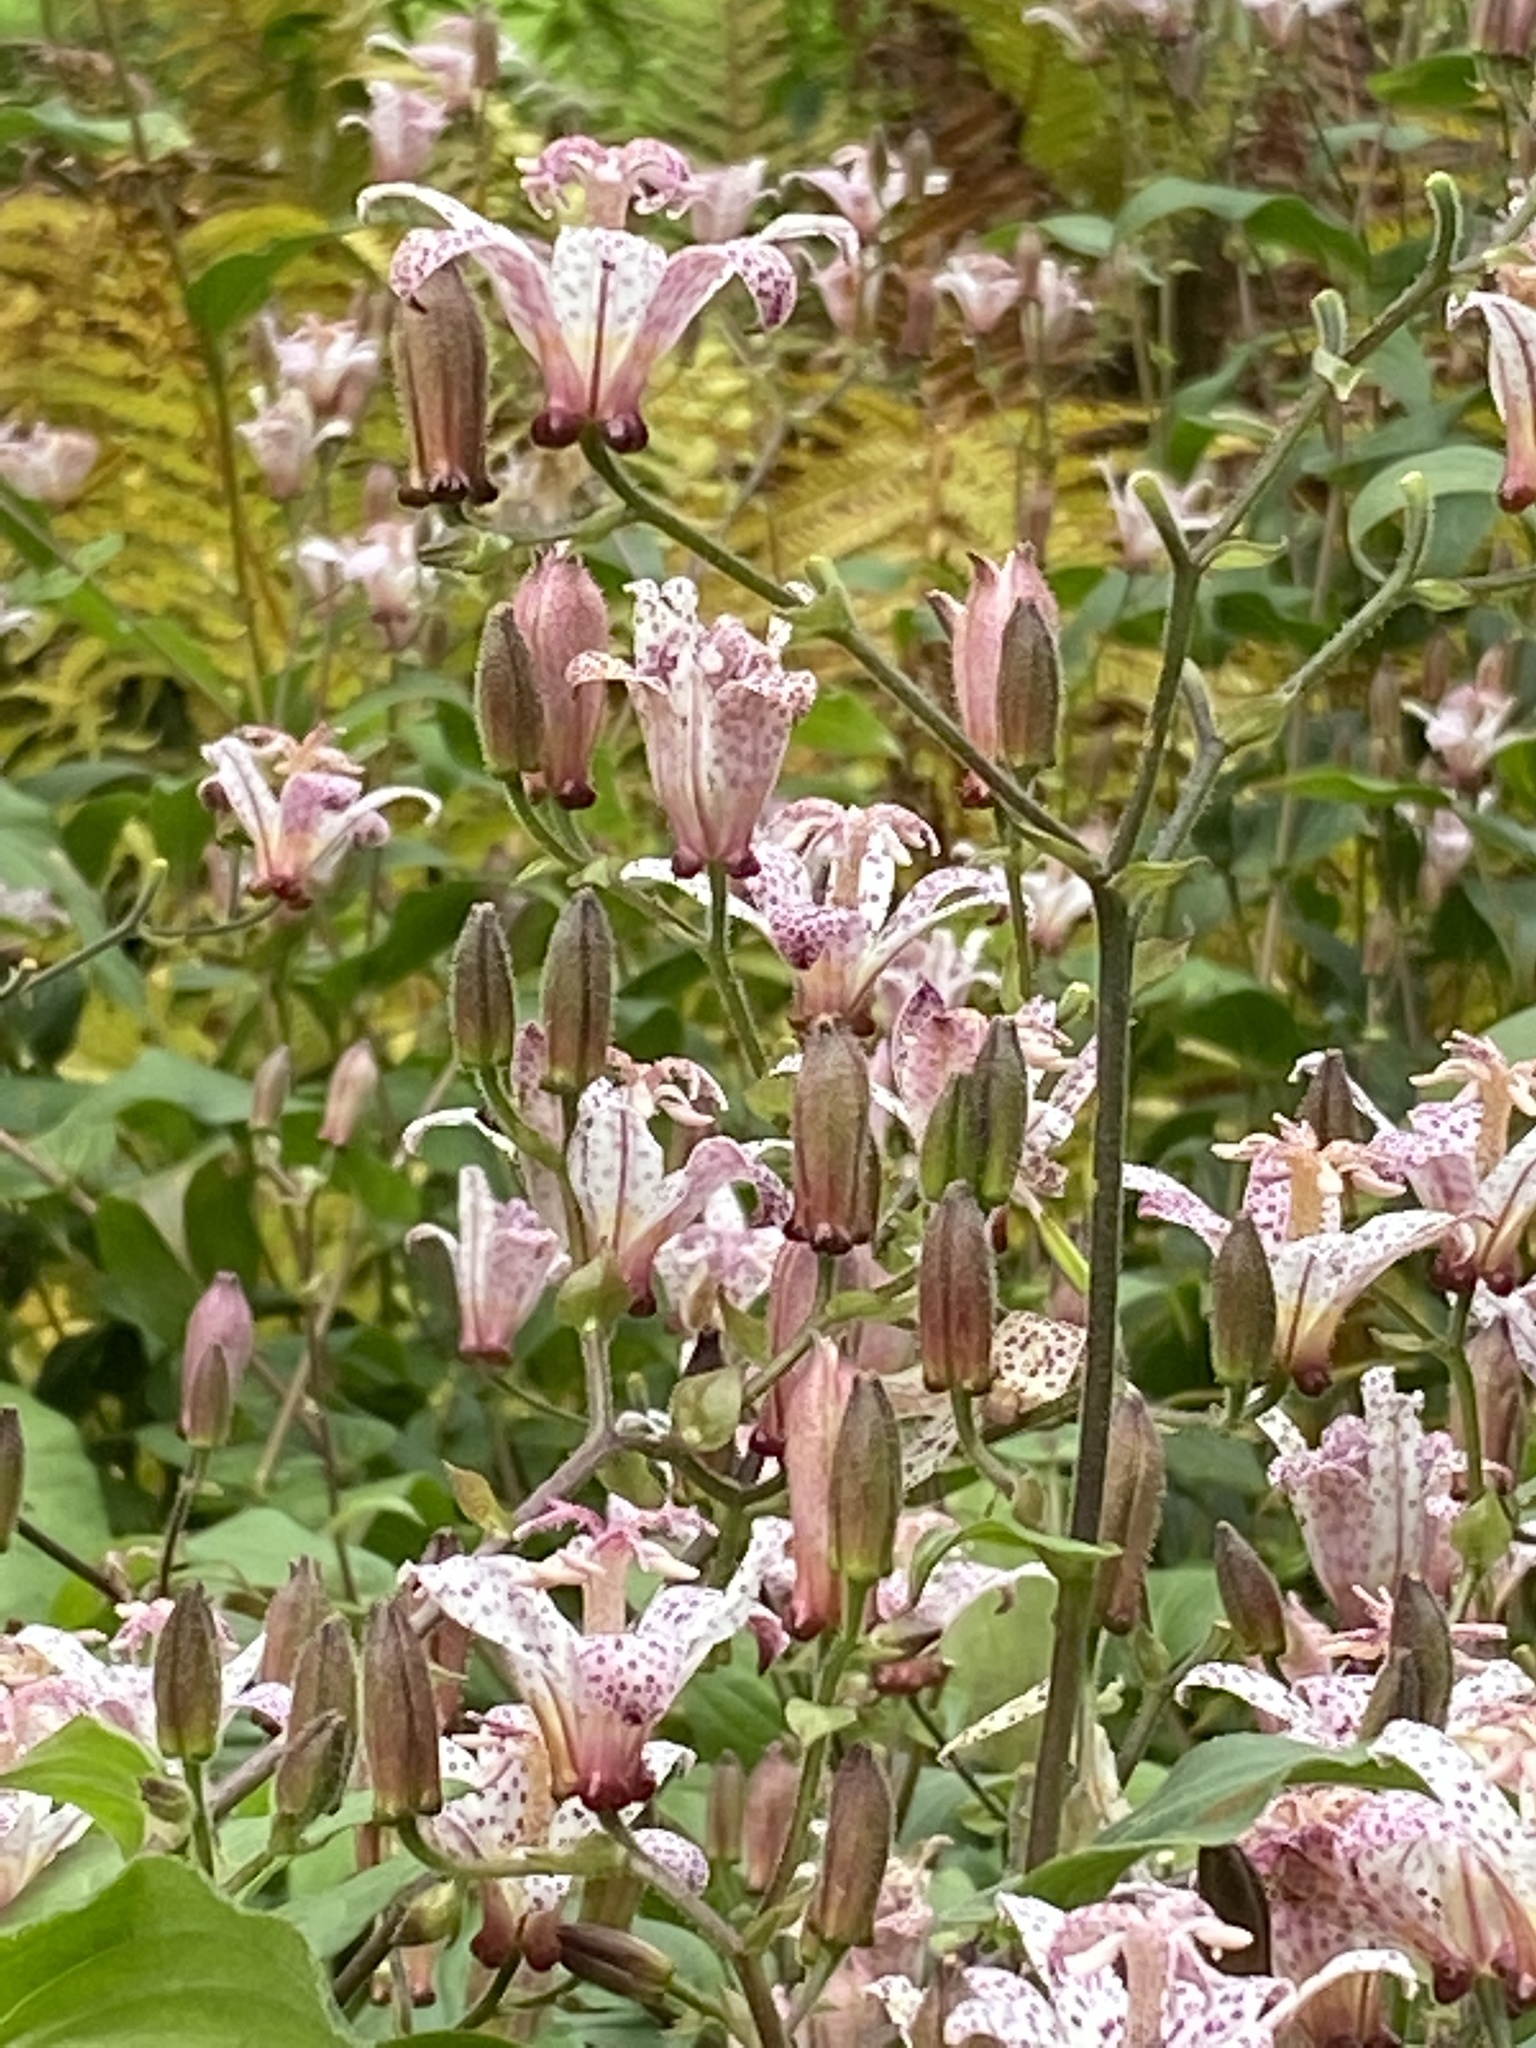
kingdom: Animalia
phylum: Arthropoda
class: Insecta
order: Hymenoptera
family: Apidae
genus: Apis
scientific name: Apis mellifera
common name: Honey bee
